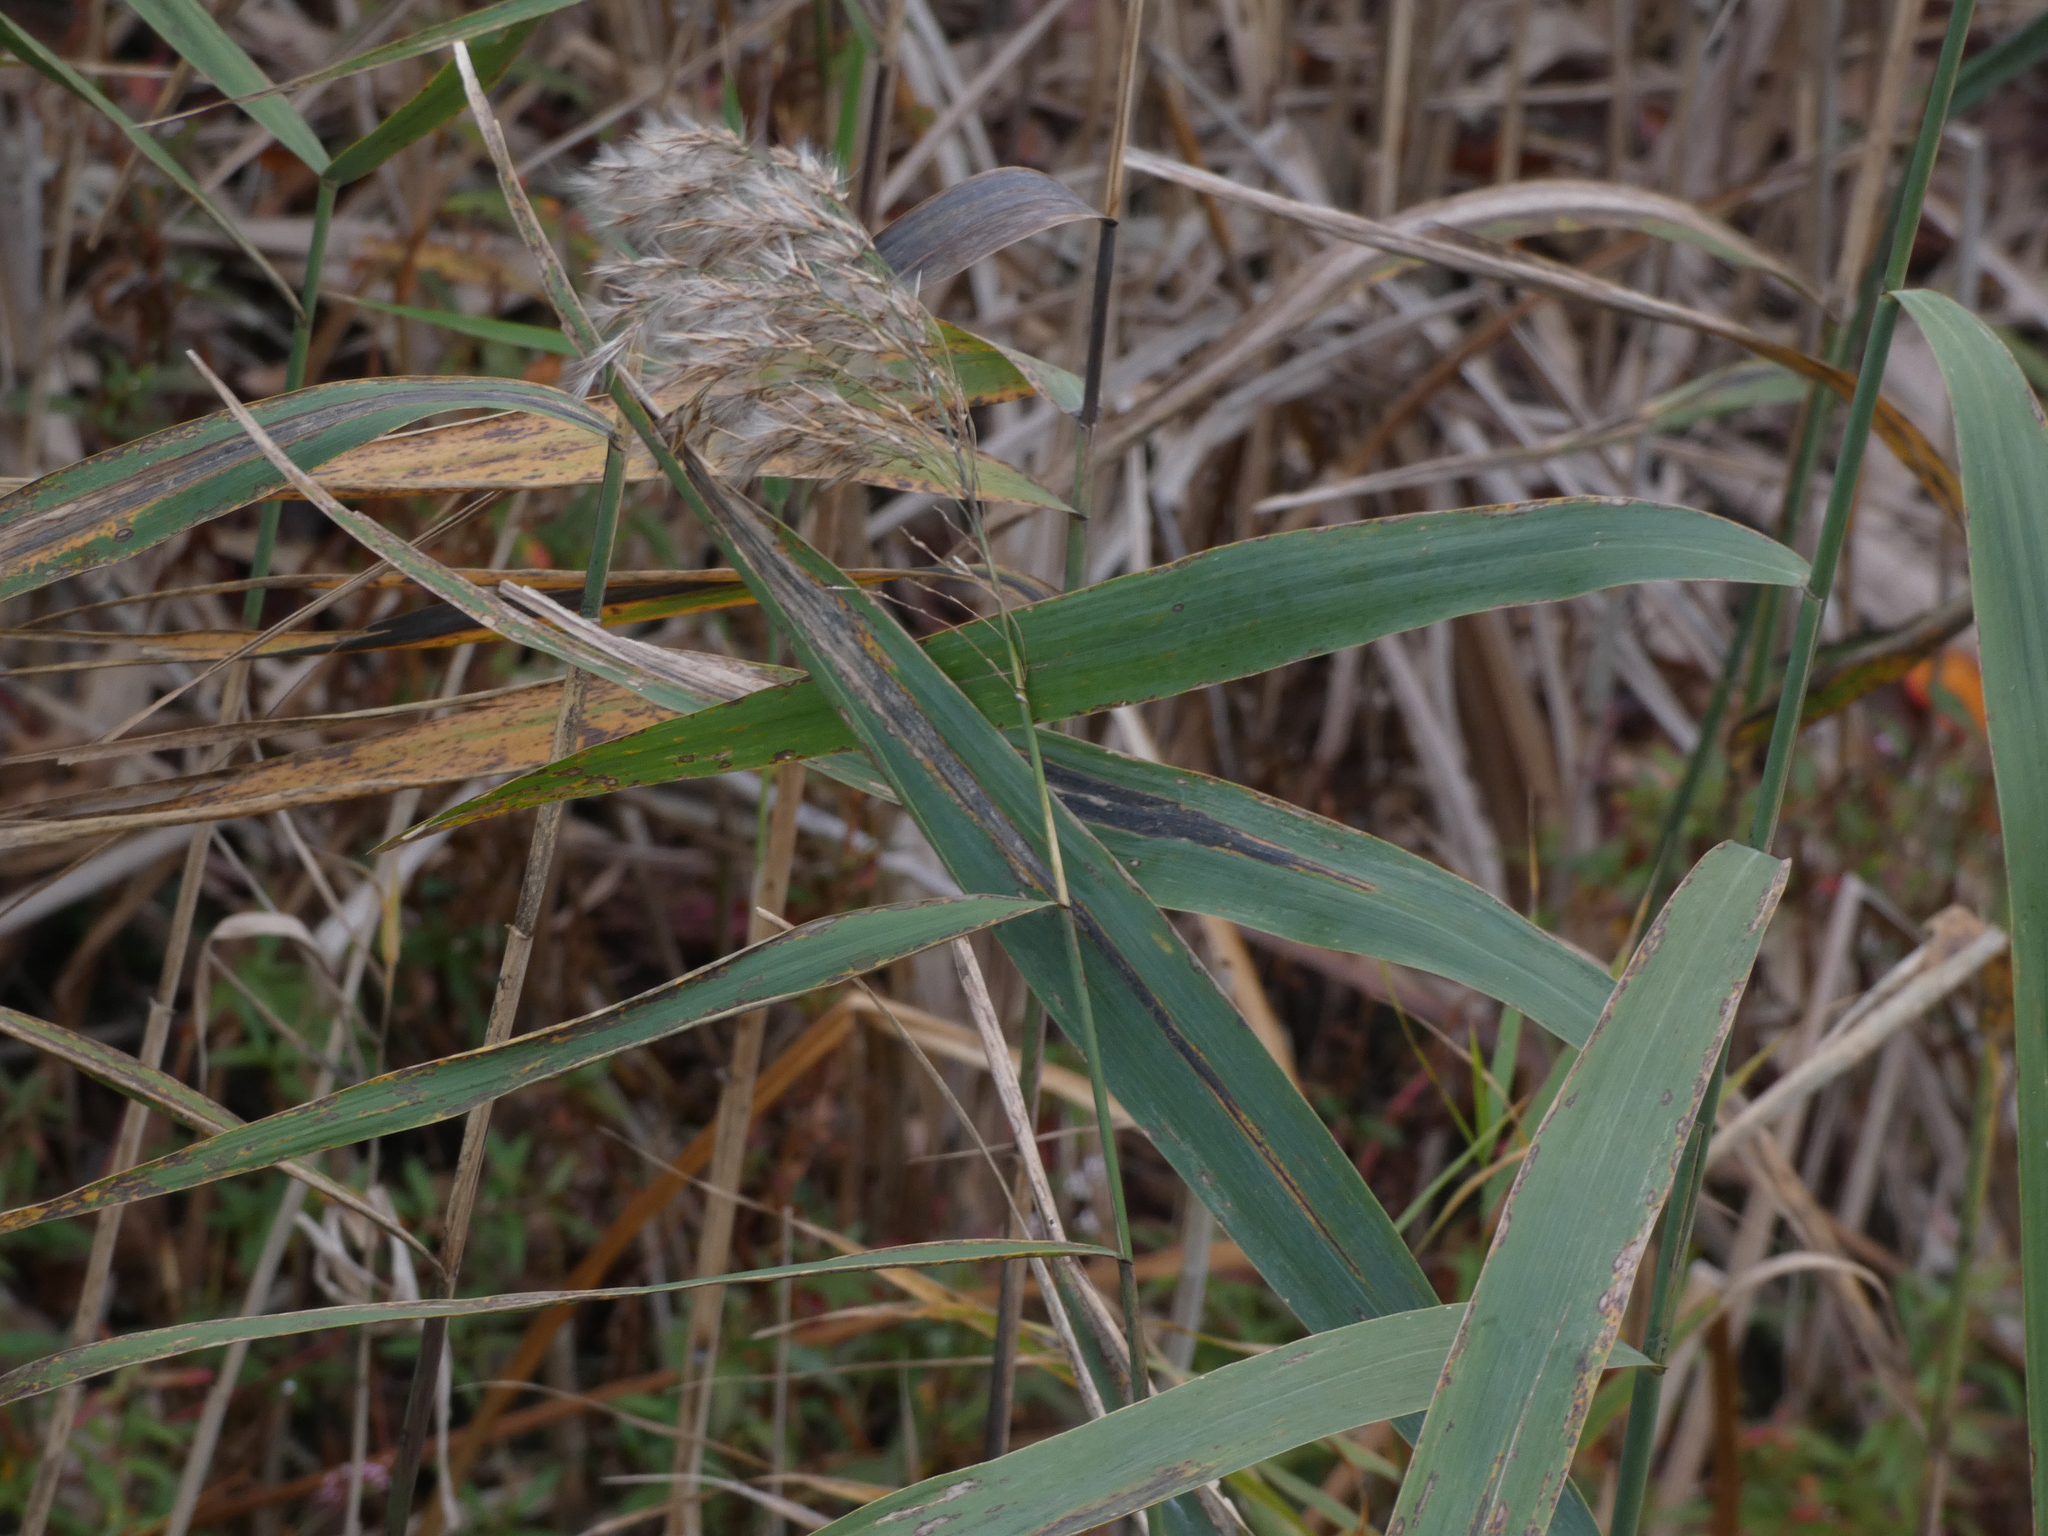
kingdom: Plantae
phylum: Tracheophyta
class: Liliopsida
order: Poales
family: Poaceae
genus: Phragmites
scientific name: Phragmites australis
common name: Common reed
